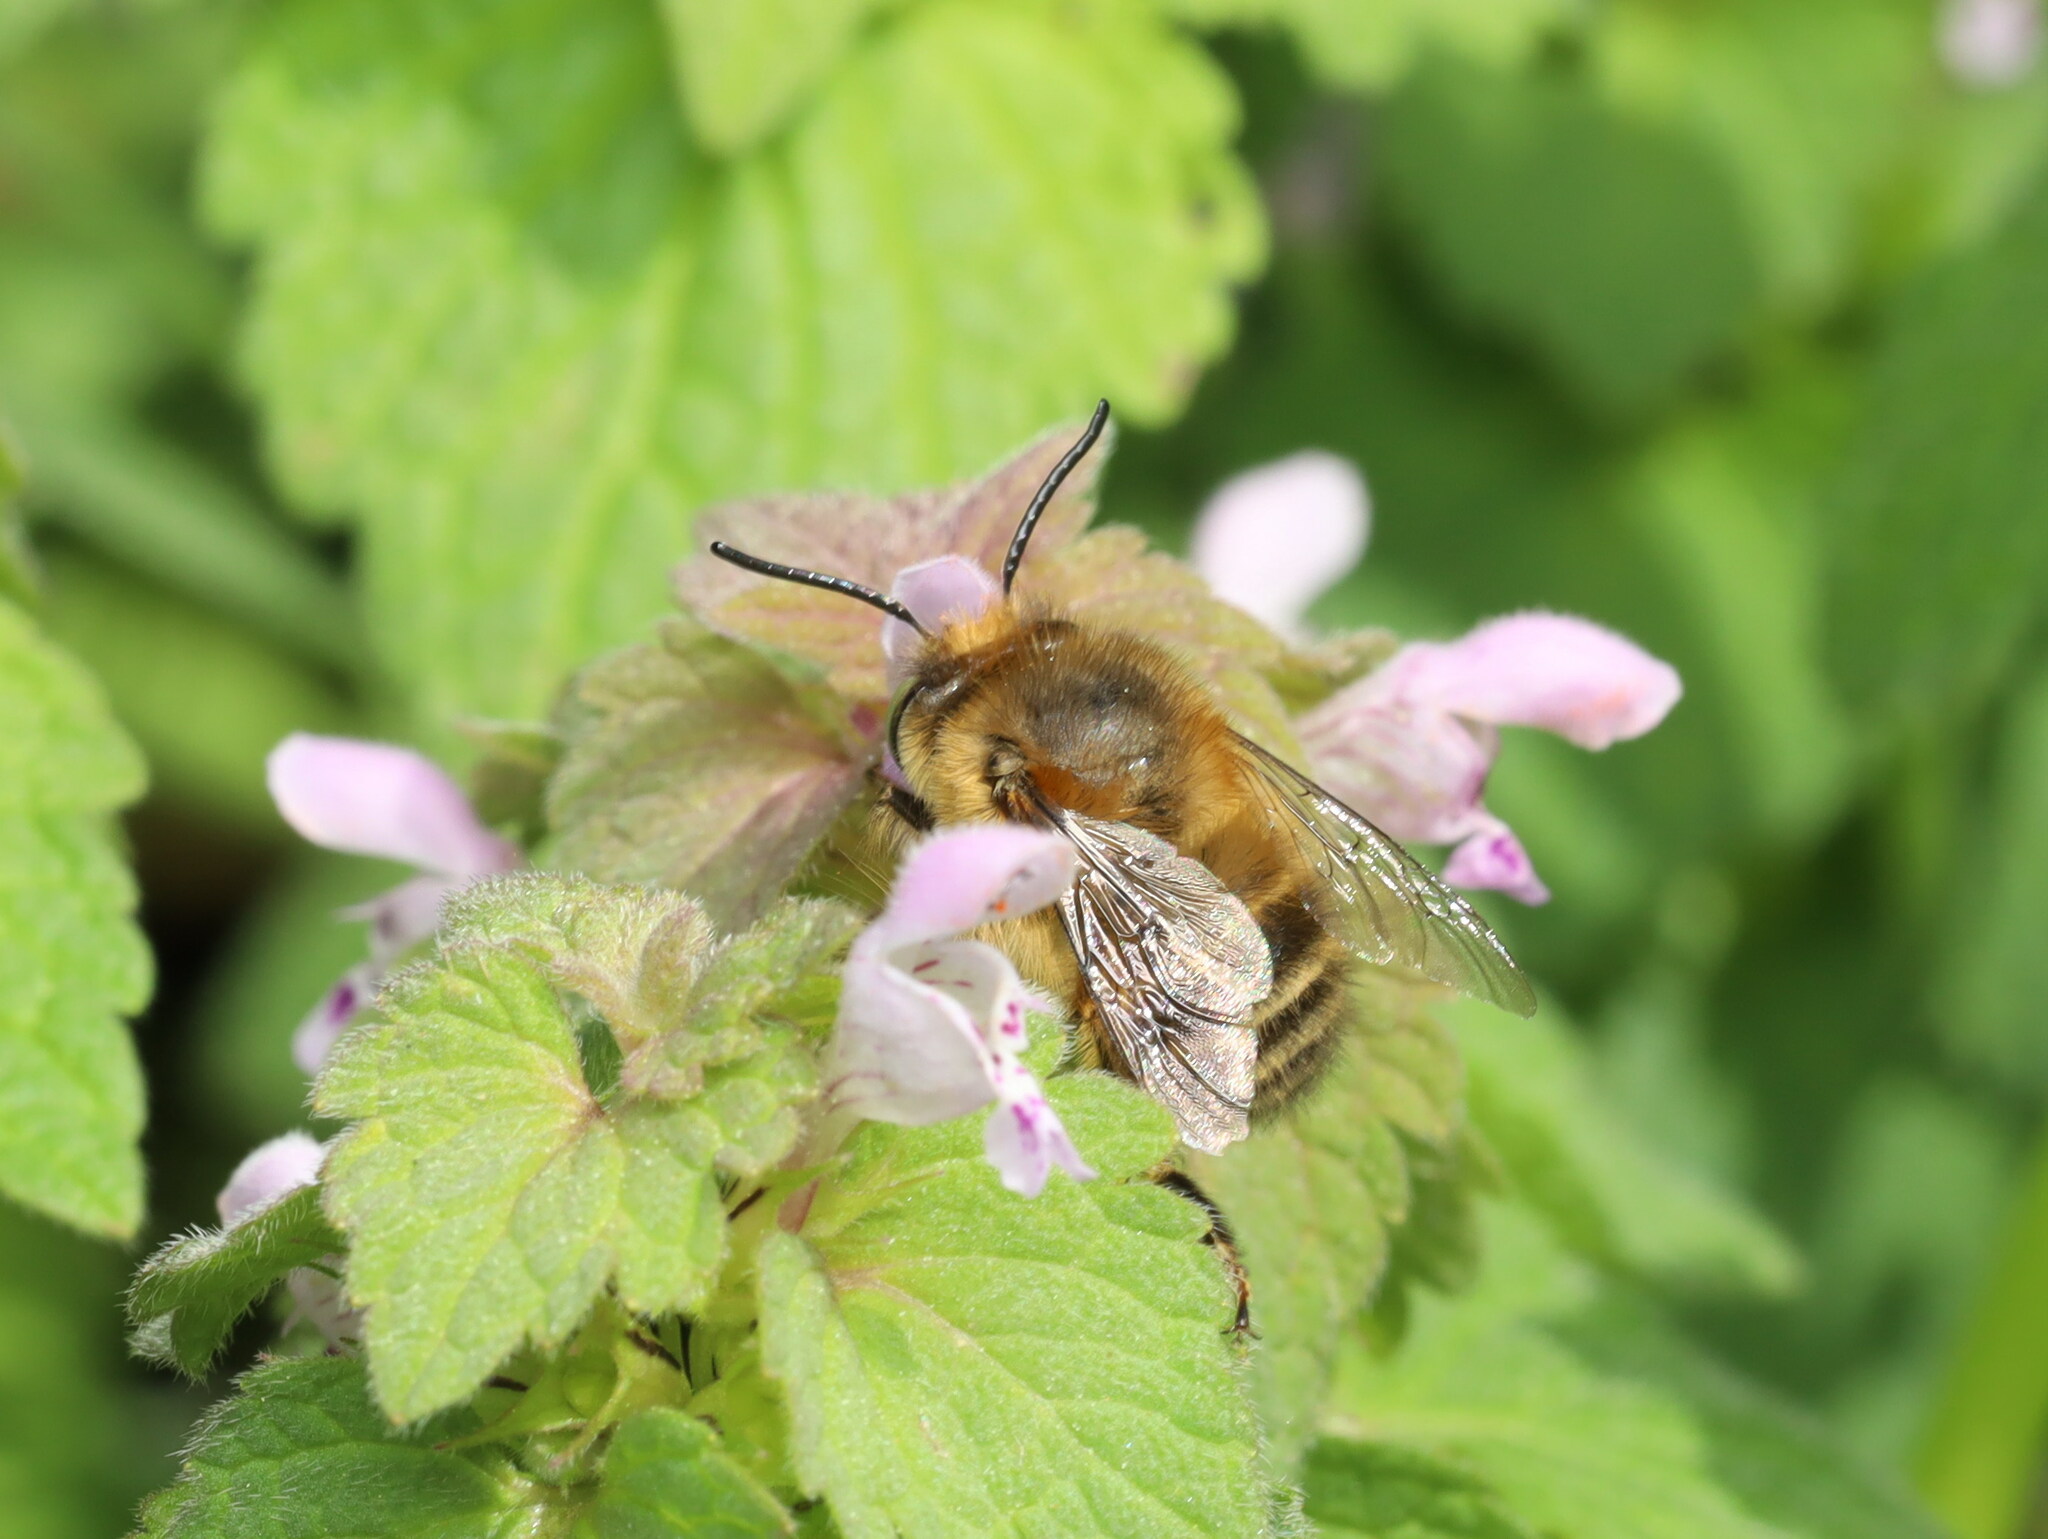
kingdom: Animalia
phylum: Arthropoda
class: Insecta
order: Hymenoptera
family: Apidae
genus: Anthophora
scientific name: Anthophora crinipes
